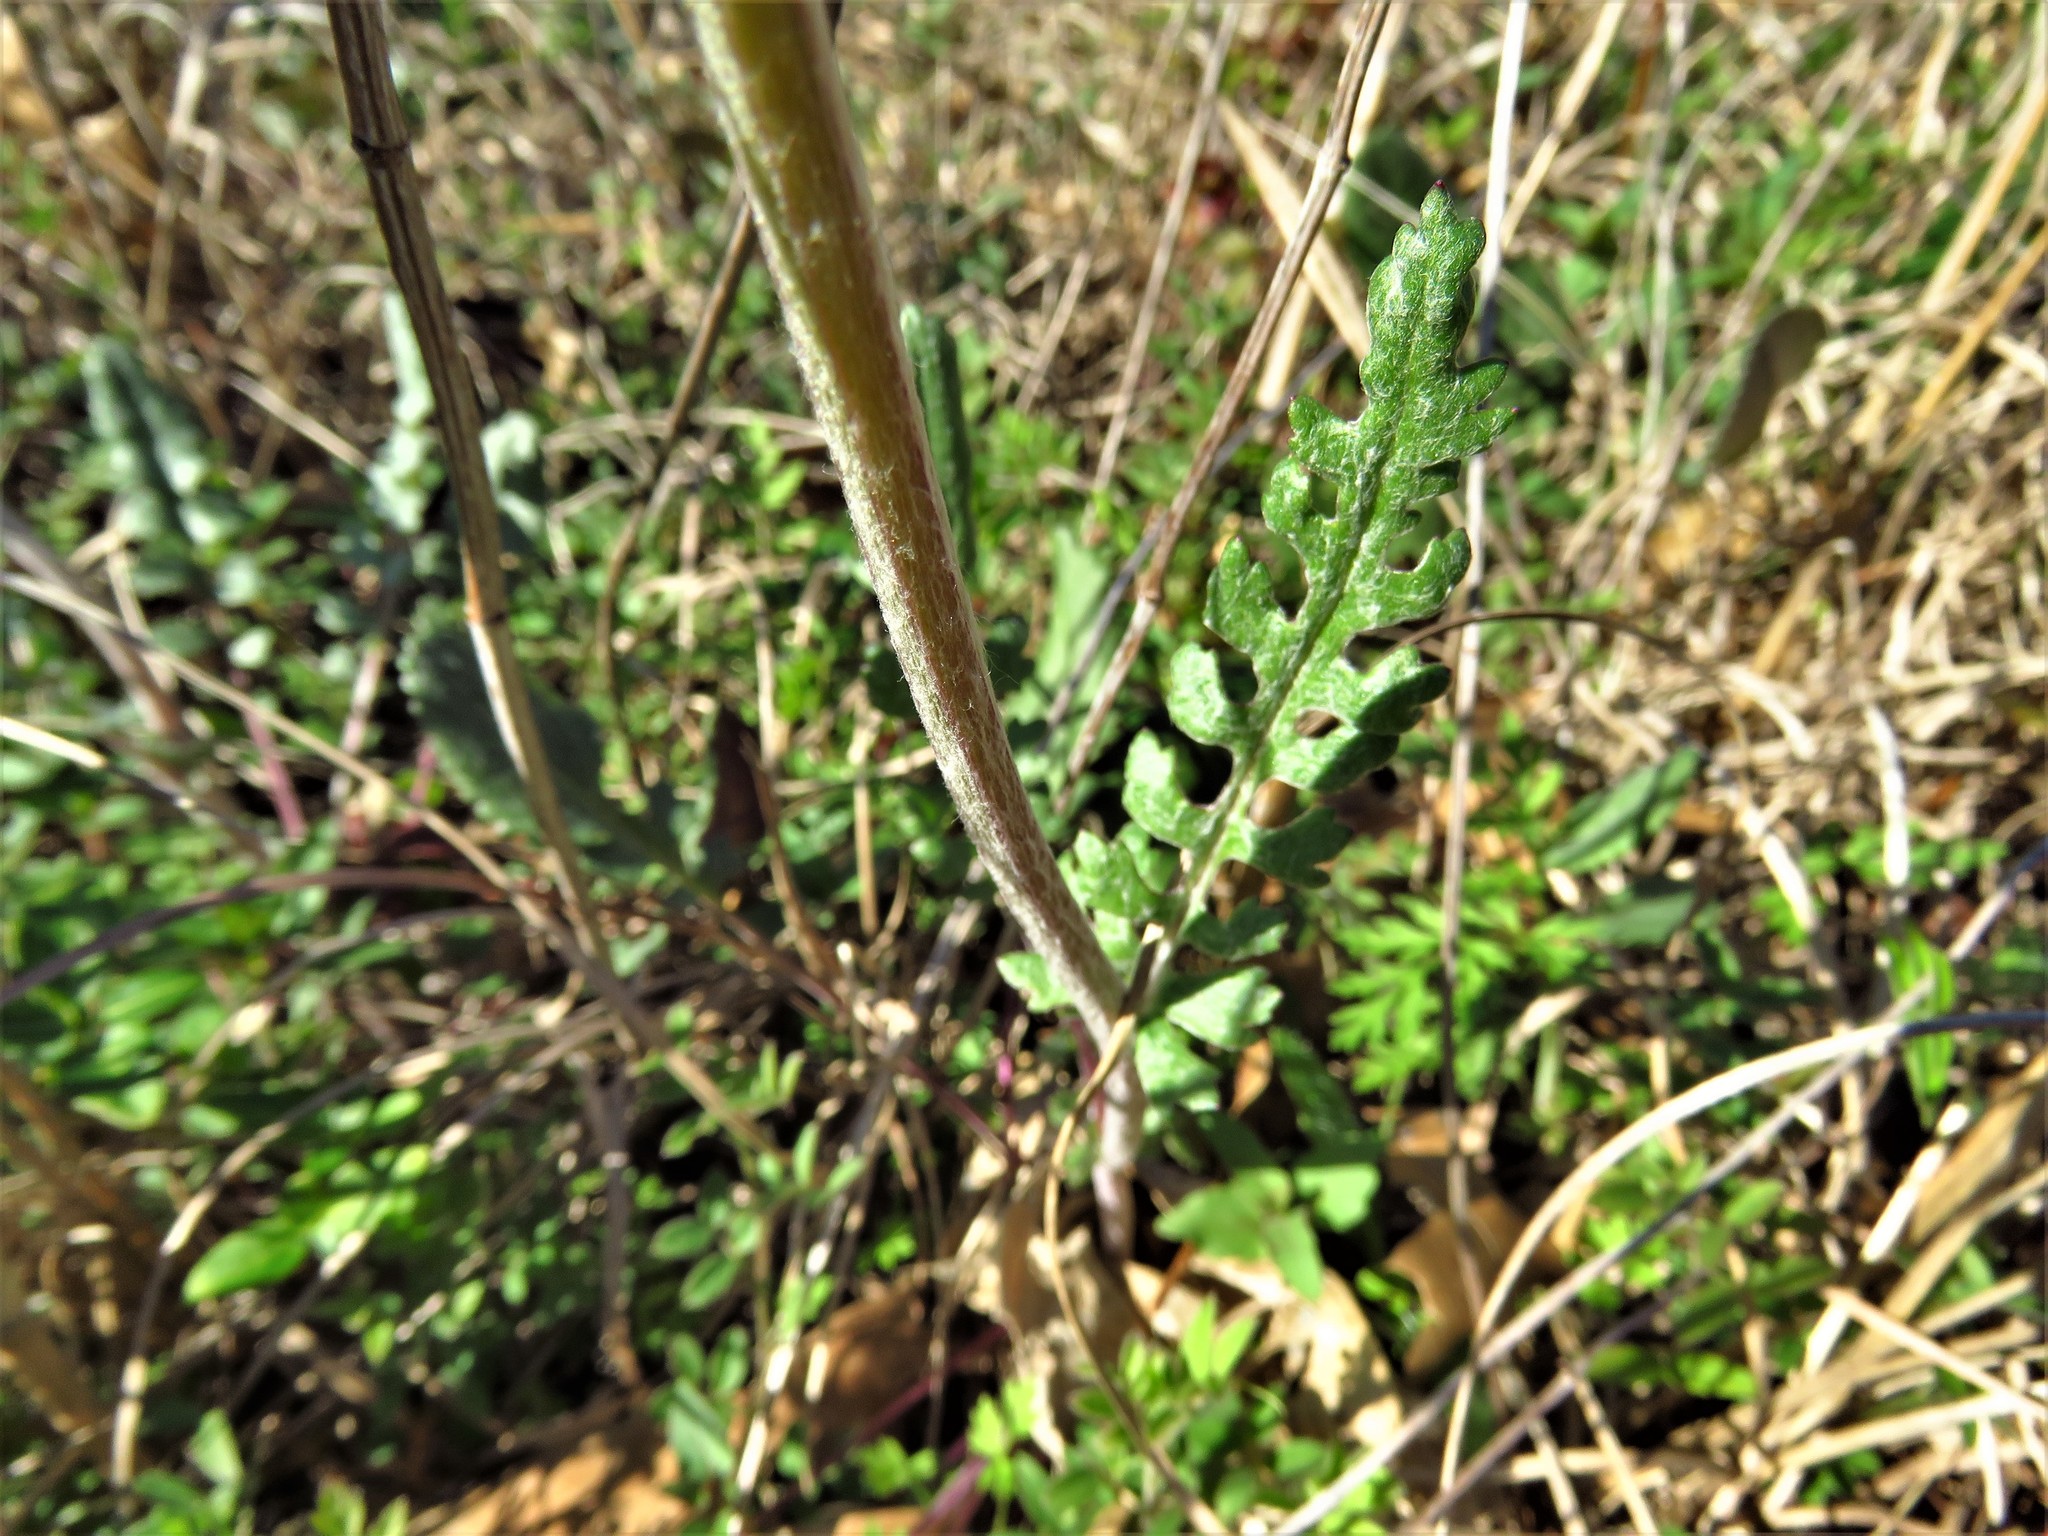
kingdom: Plantae
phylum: Tracheophyta
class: Magnoliopsida
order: Asterales
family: Asteraceae
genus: Packera
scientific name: Packera plattensis
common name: Prairie groundsel
